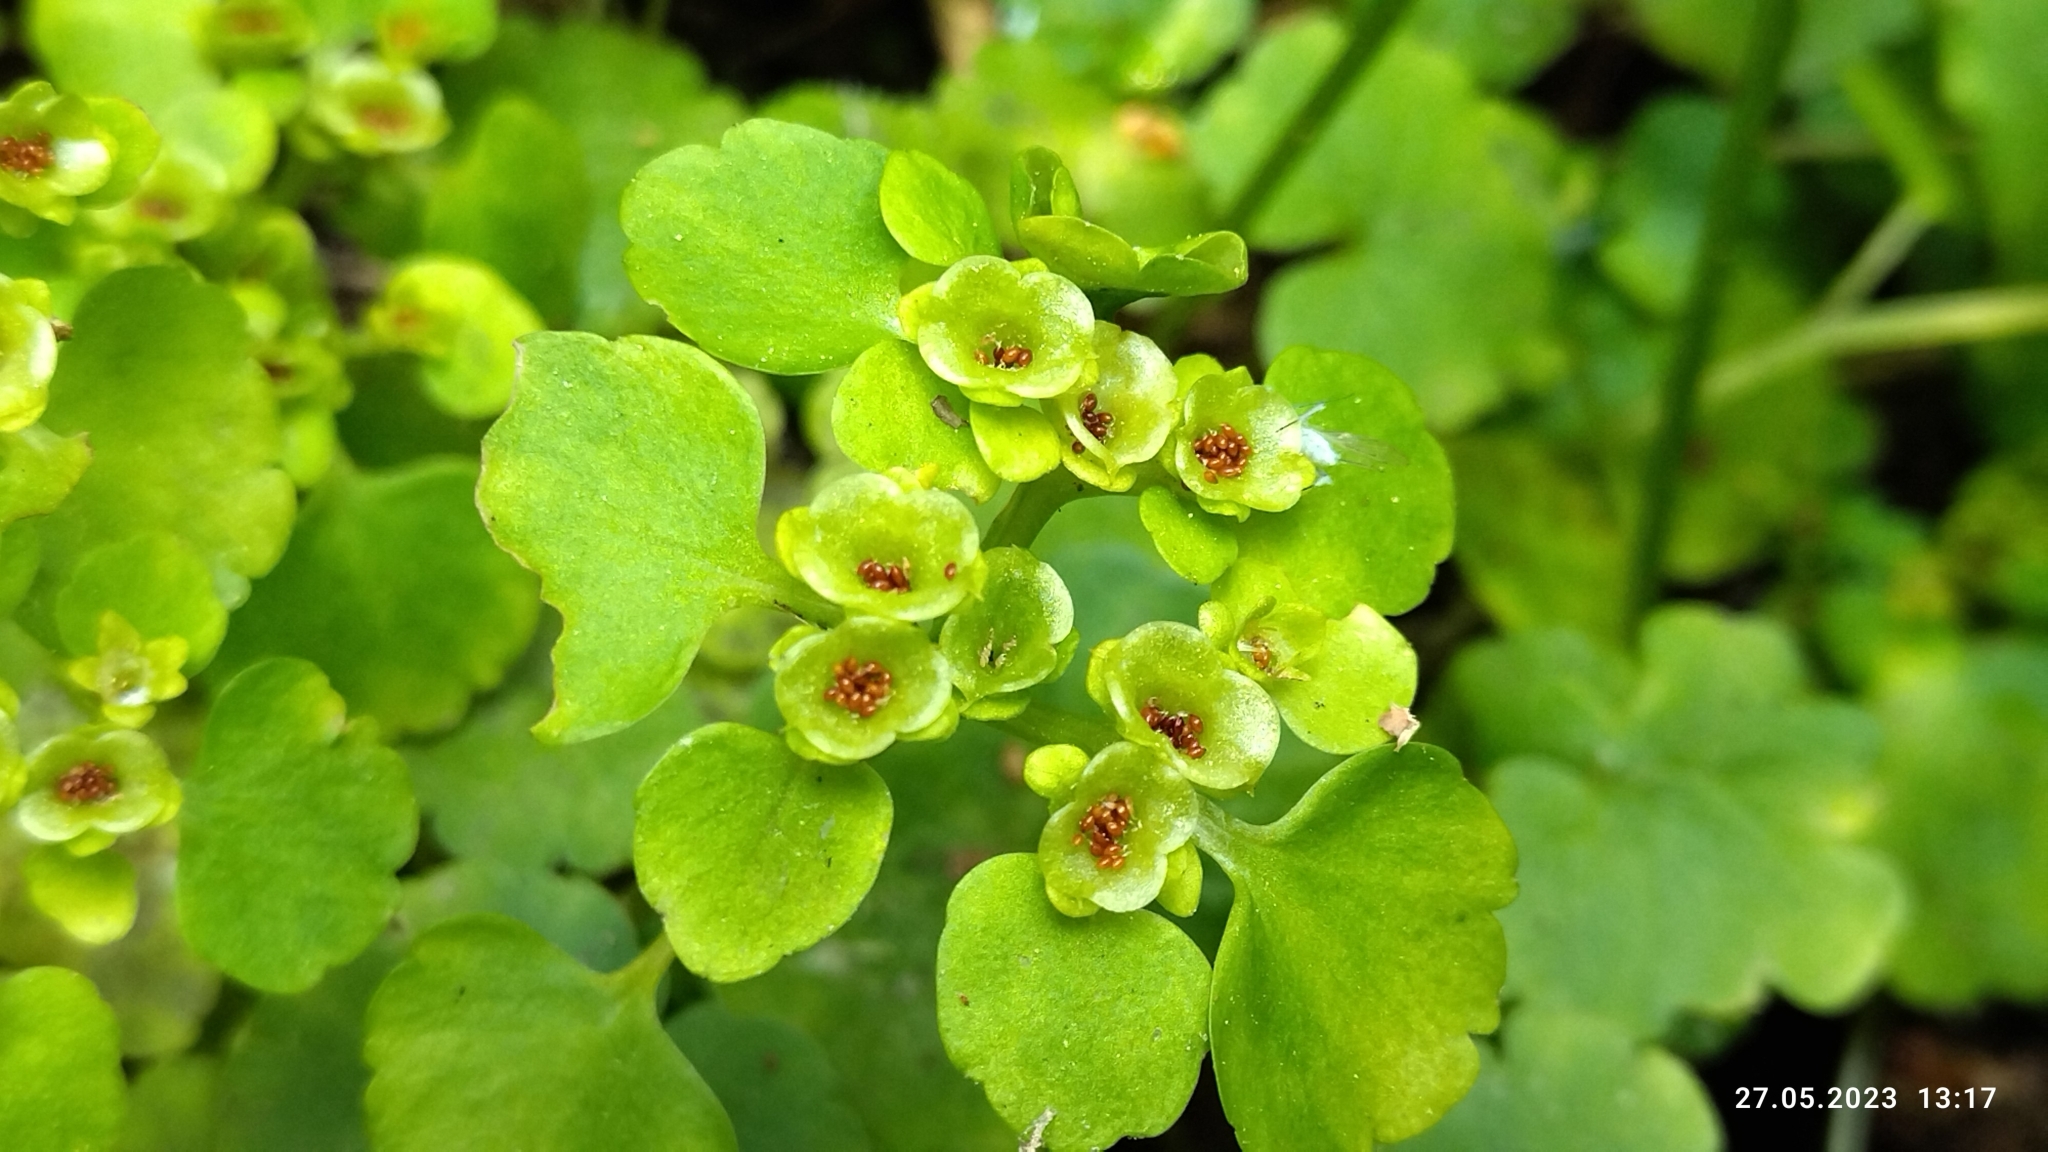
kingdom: Plantae
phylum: Tracheophyta
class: Magnoliopsida
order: Saxifragales
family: Saxifragaceae
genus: Chrysosplenium
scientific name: Chrysosplenium alternifolium
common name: Alternate-leaved golden-saxifrage
